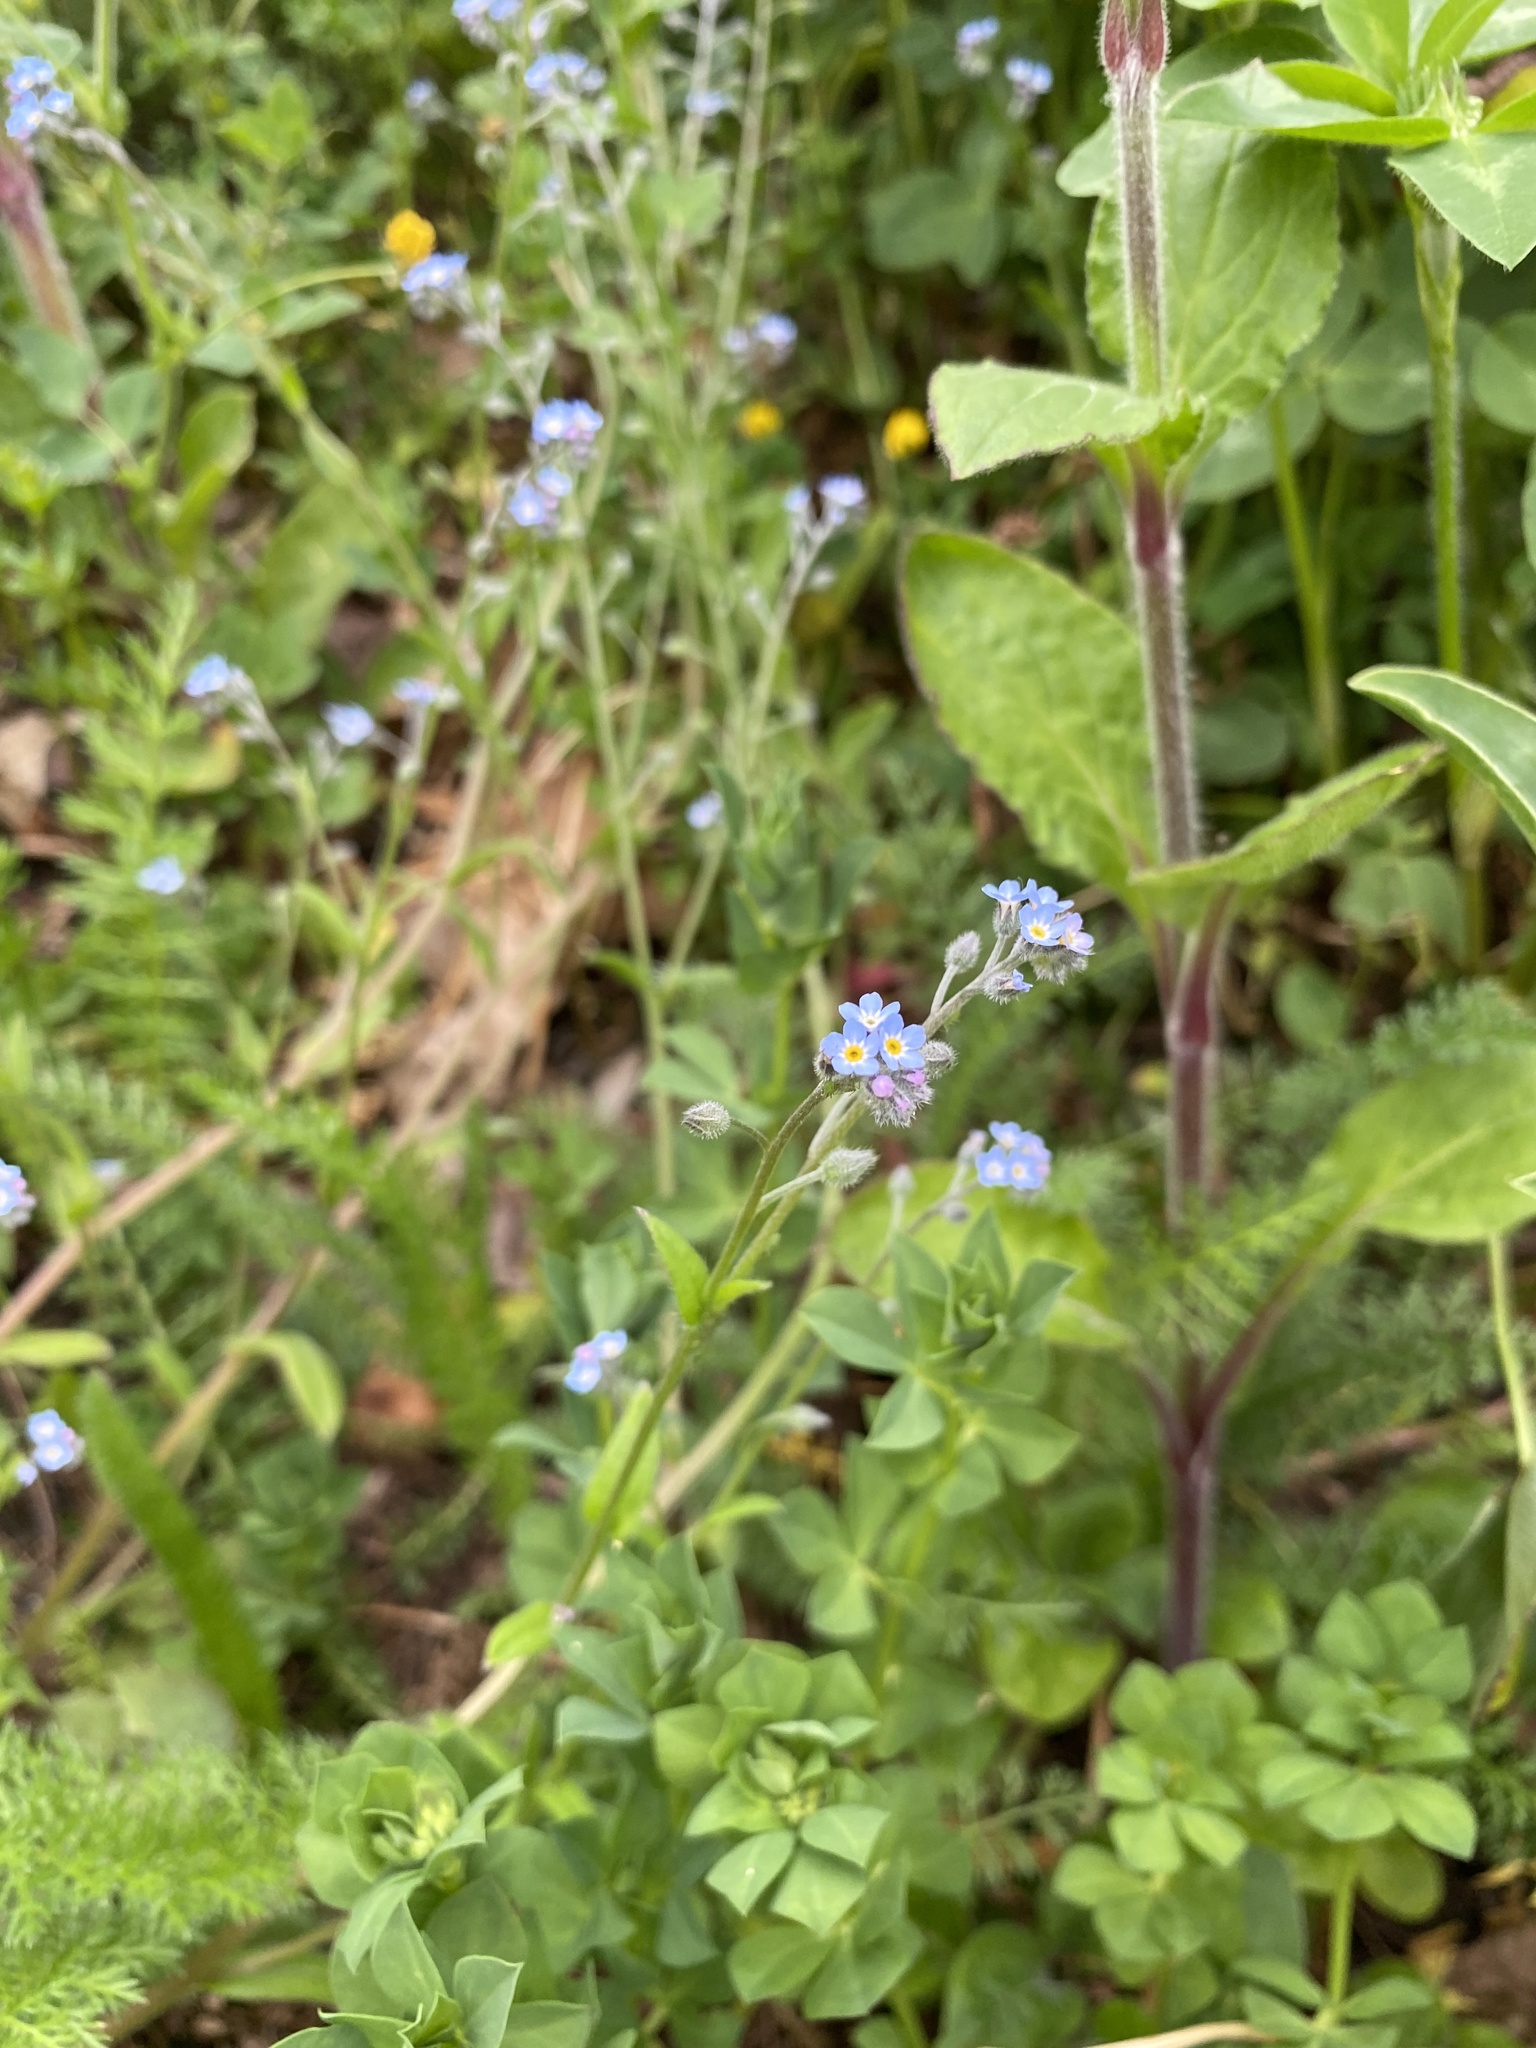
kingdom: Plantae
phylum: Tracheophyta
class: Magnoliopsida
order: Boraginales
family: Boraginaceae
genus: Myosotis
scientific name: Myosotis arvensis
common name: Field forget-me-not
